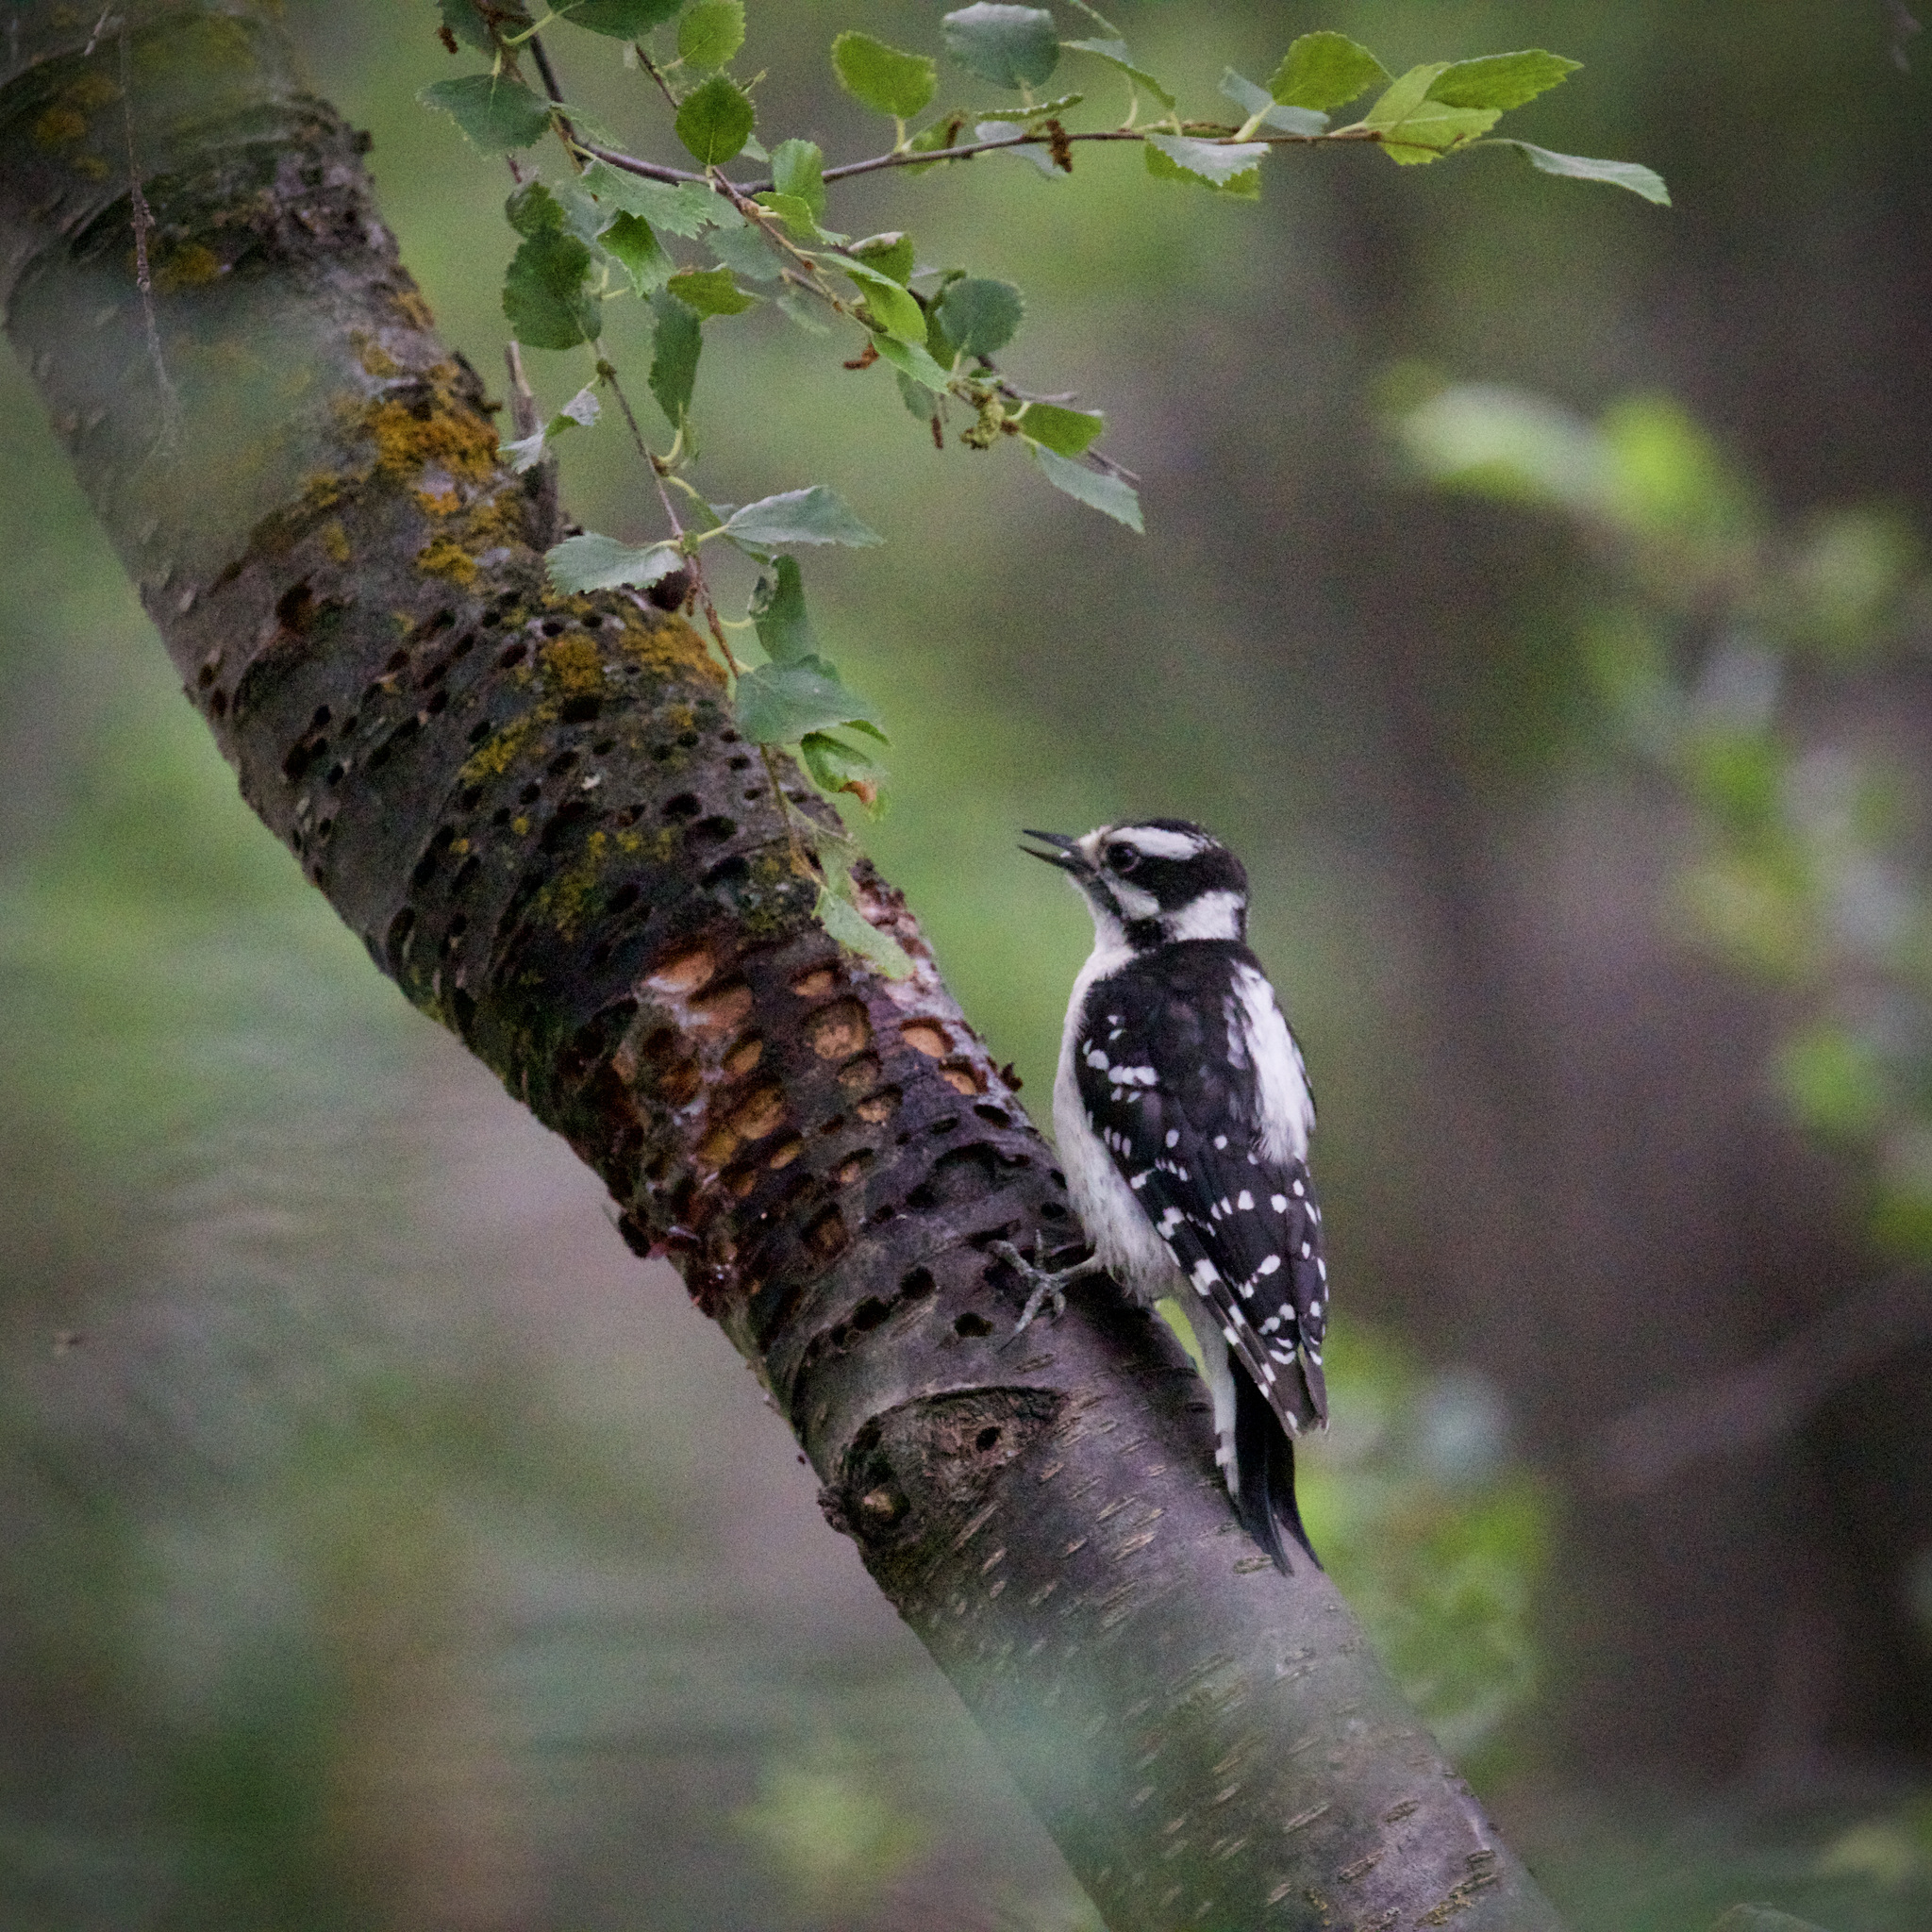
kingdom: Animalia
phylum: Chordata
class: Aves
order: Piciformes
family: Picidae
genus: Dryobates
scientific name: Dryobates pubescens
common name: Downy woodpecker
